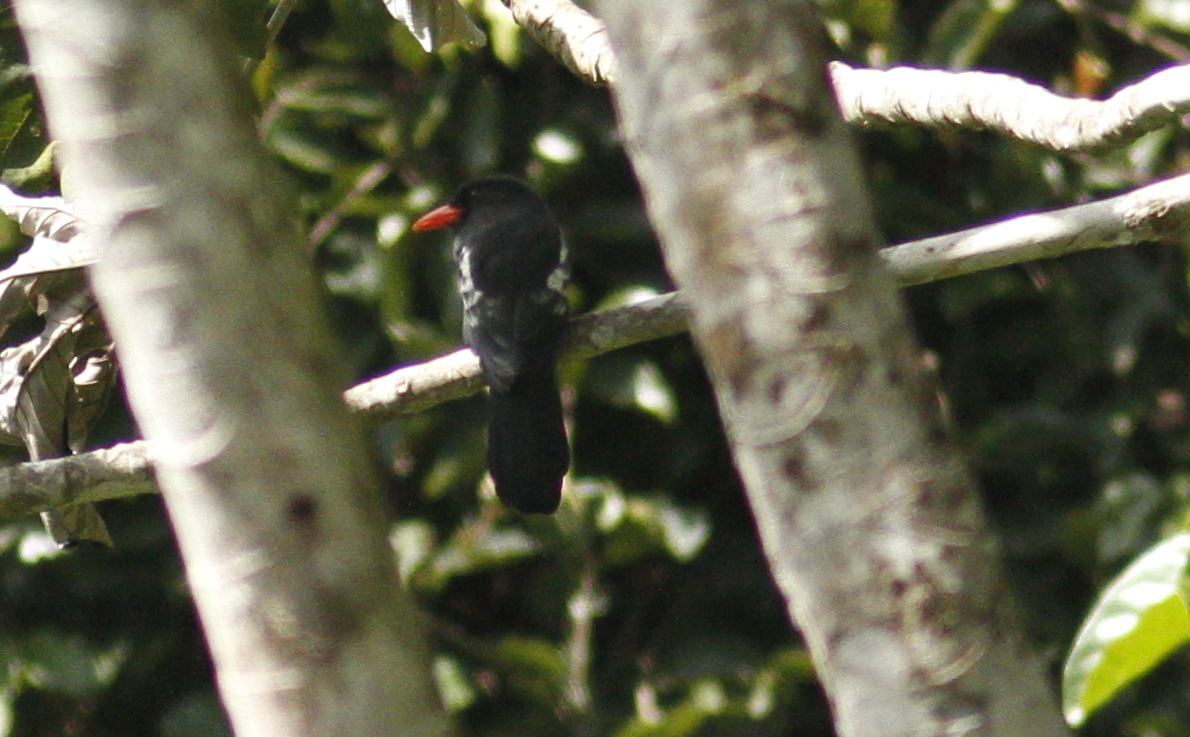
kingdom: Animalia
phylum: Chordata
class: Aves
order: Piciformes
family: Bucconidae
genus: Monasa
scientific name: Monasa atra
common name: Black nunbird
